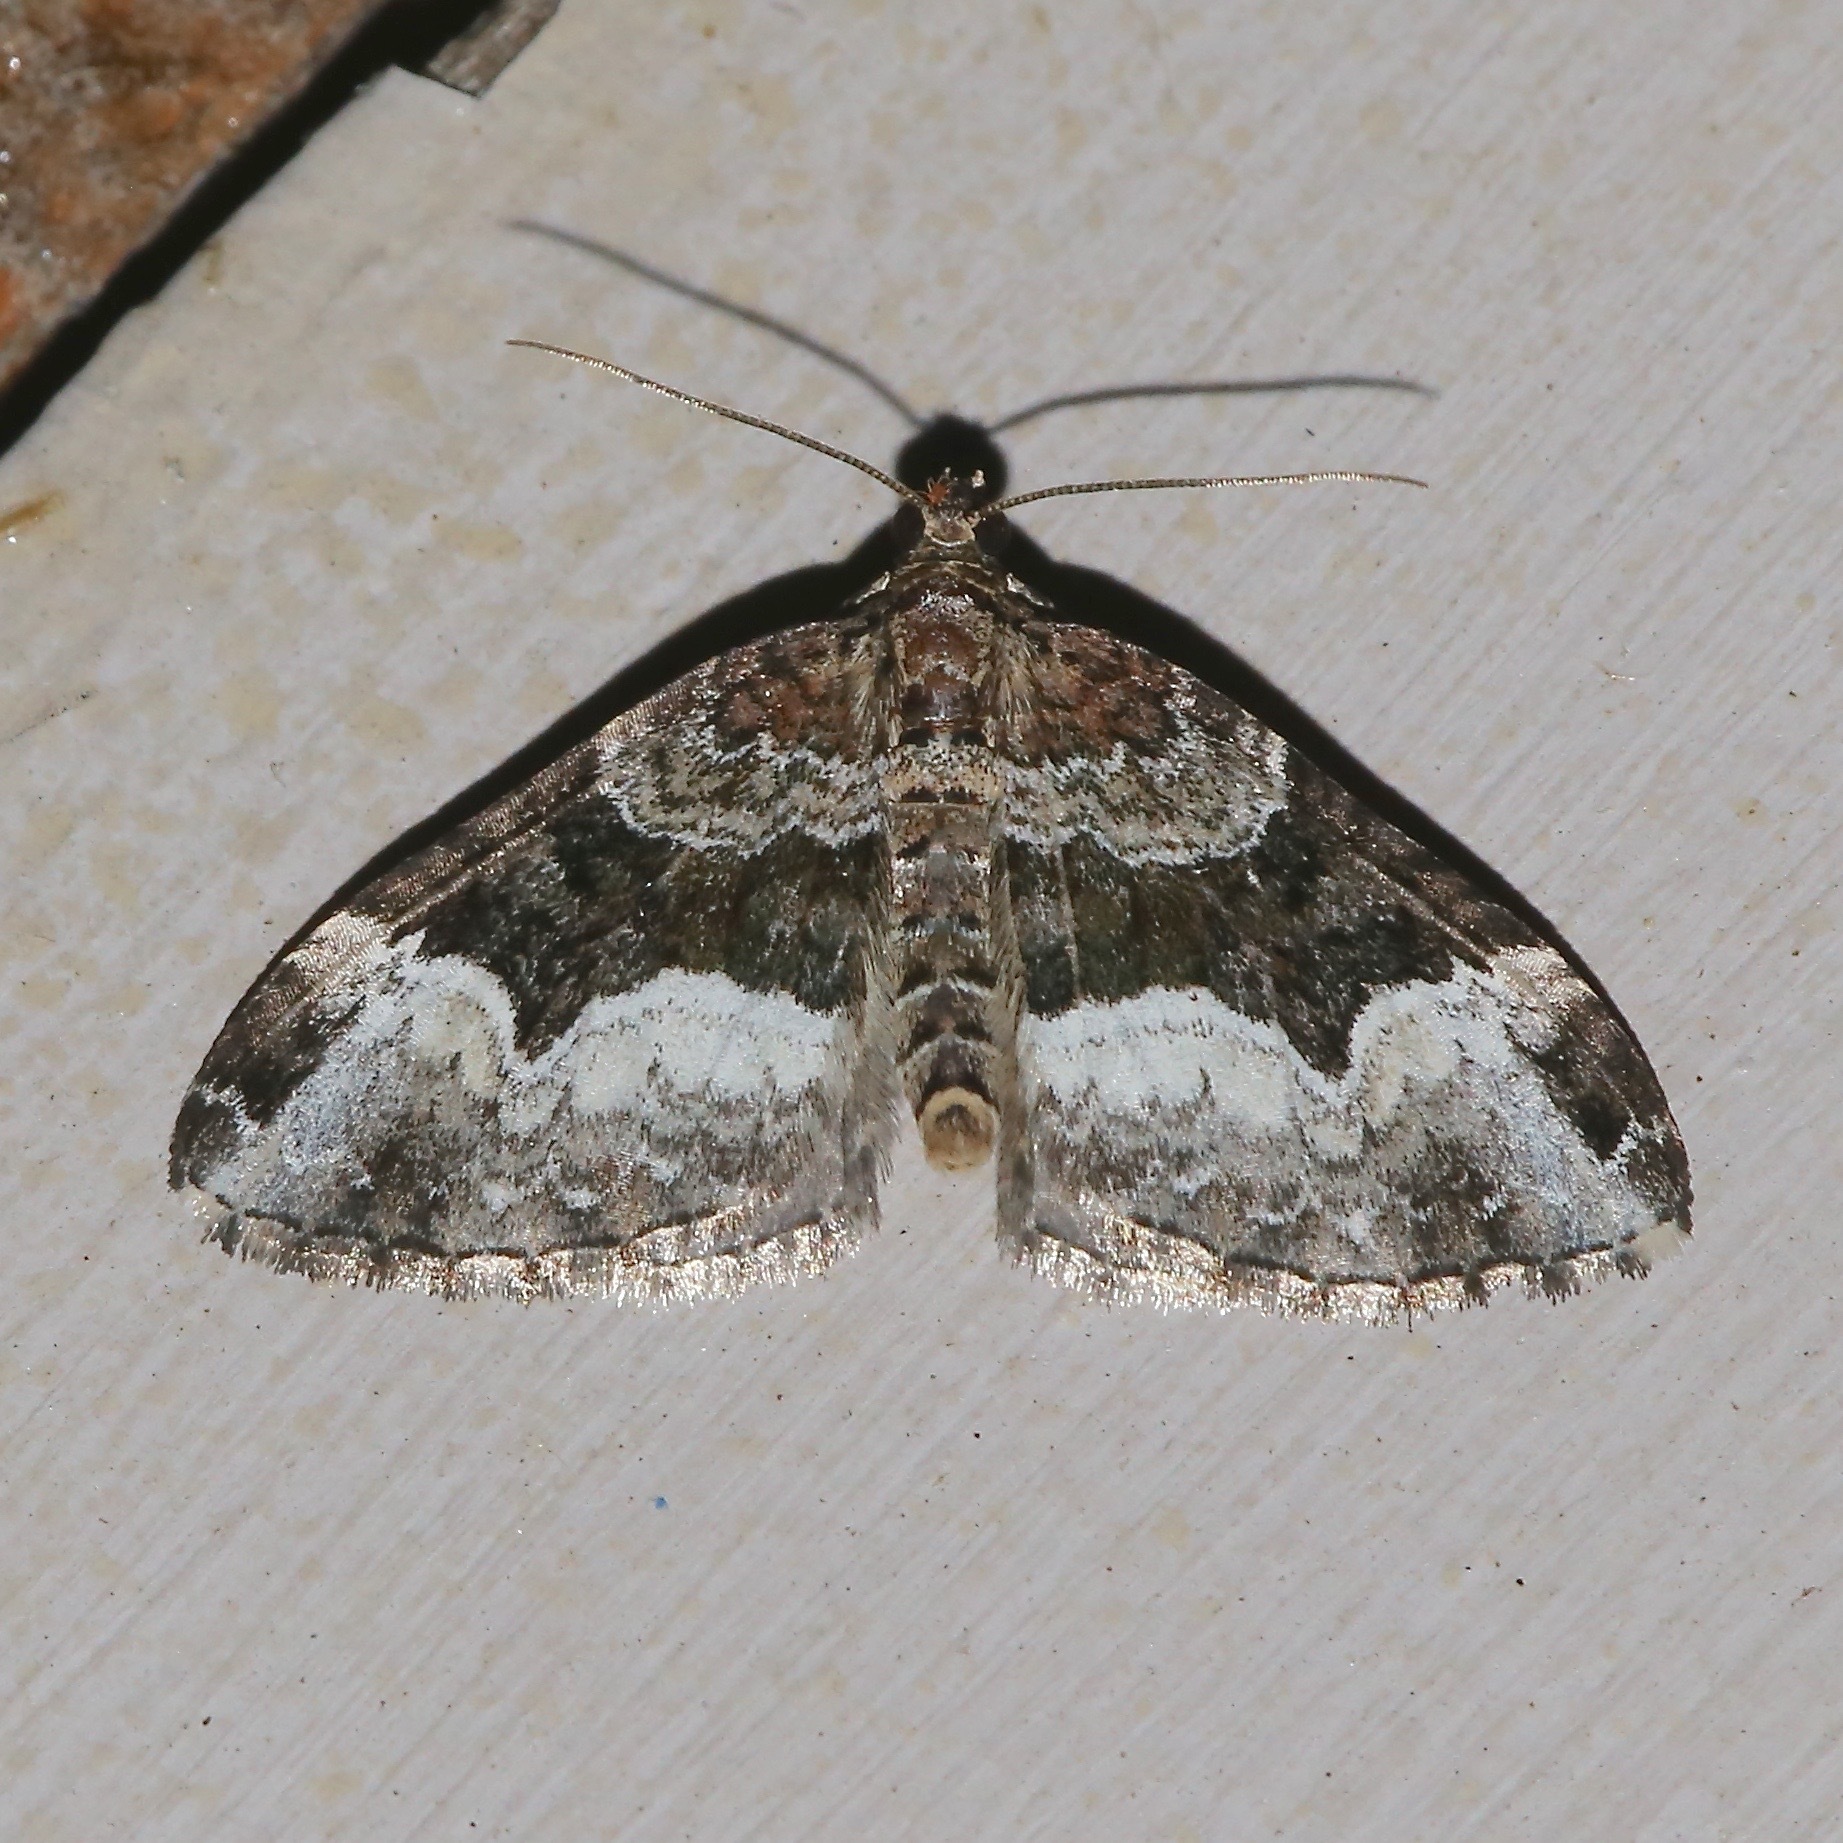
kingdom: Animalia
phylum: Arthropoda
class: Insecta
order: Lepidoptera
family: Geometridae
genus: Euphyia
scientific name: Euphyia intermediata
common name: Sharp-angled carpet
